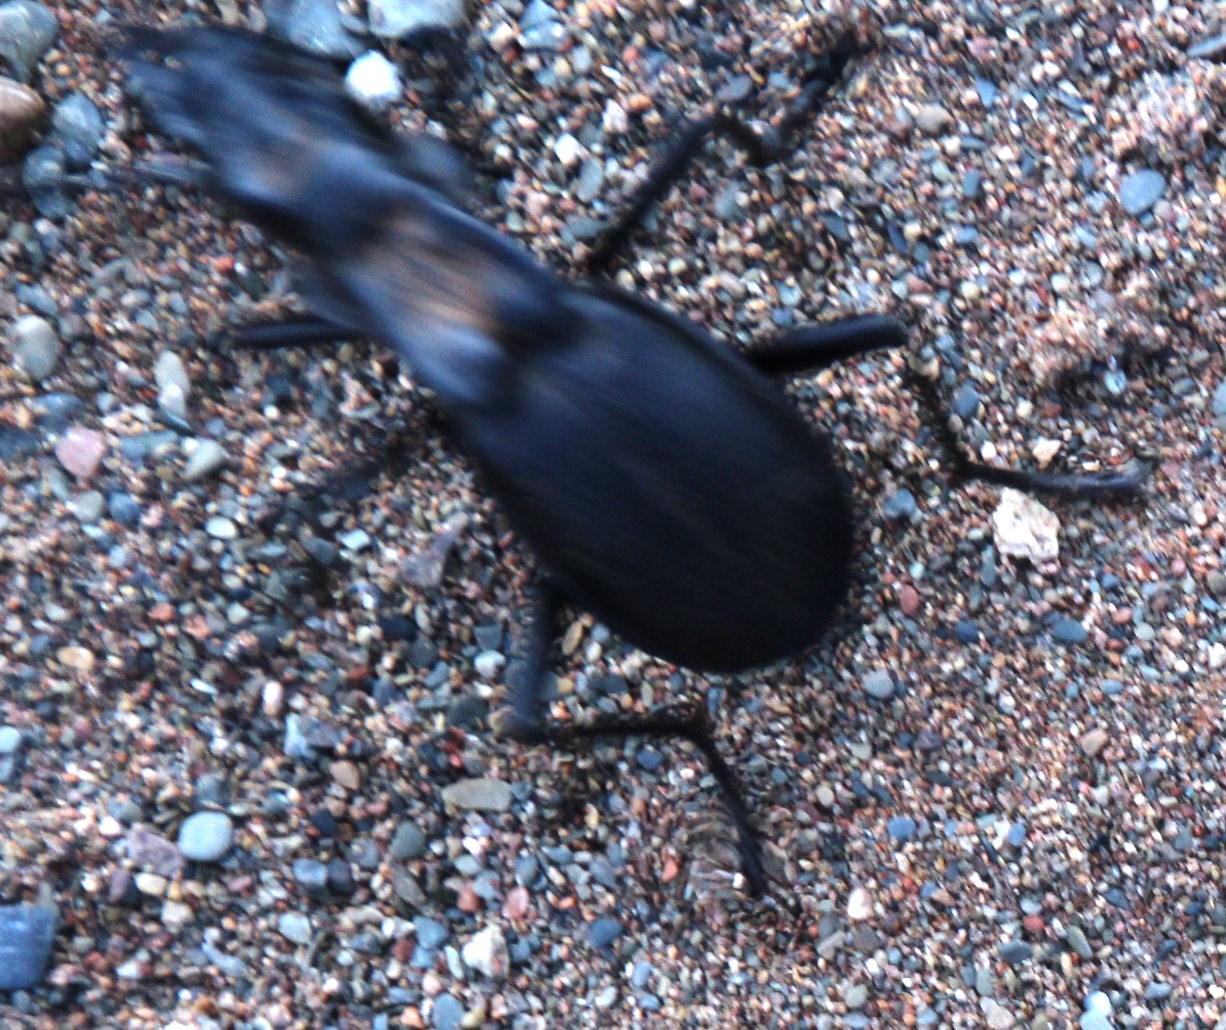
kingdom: Animalia
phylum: Arthropoda
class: Insecta
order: Coleoptera
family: Carabidae
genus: Anthia
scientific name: Anthia maxillosa
